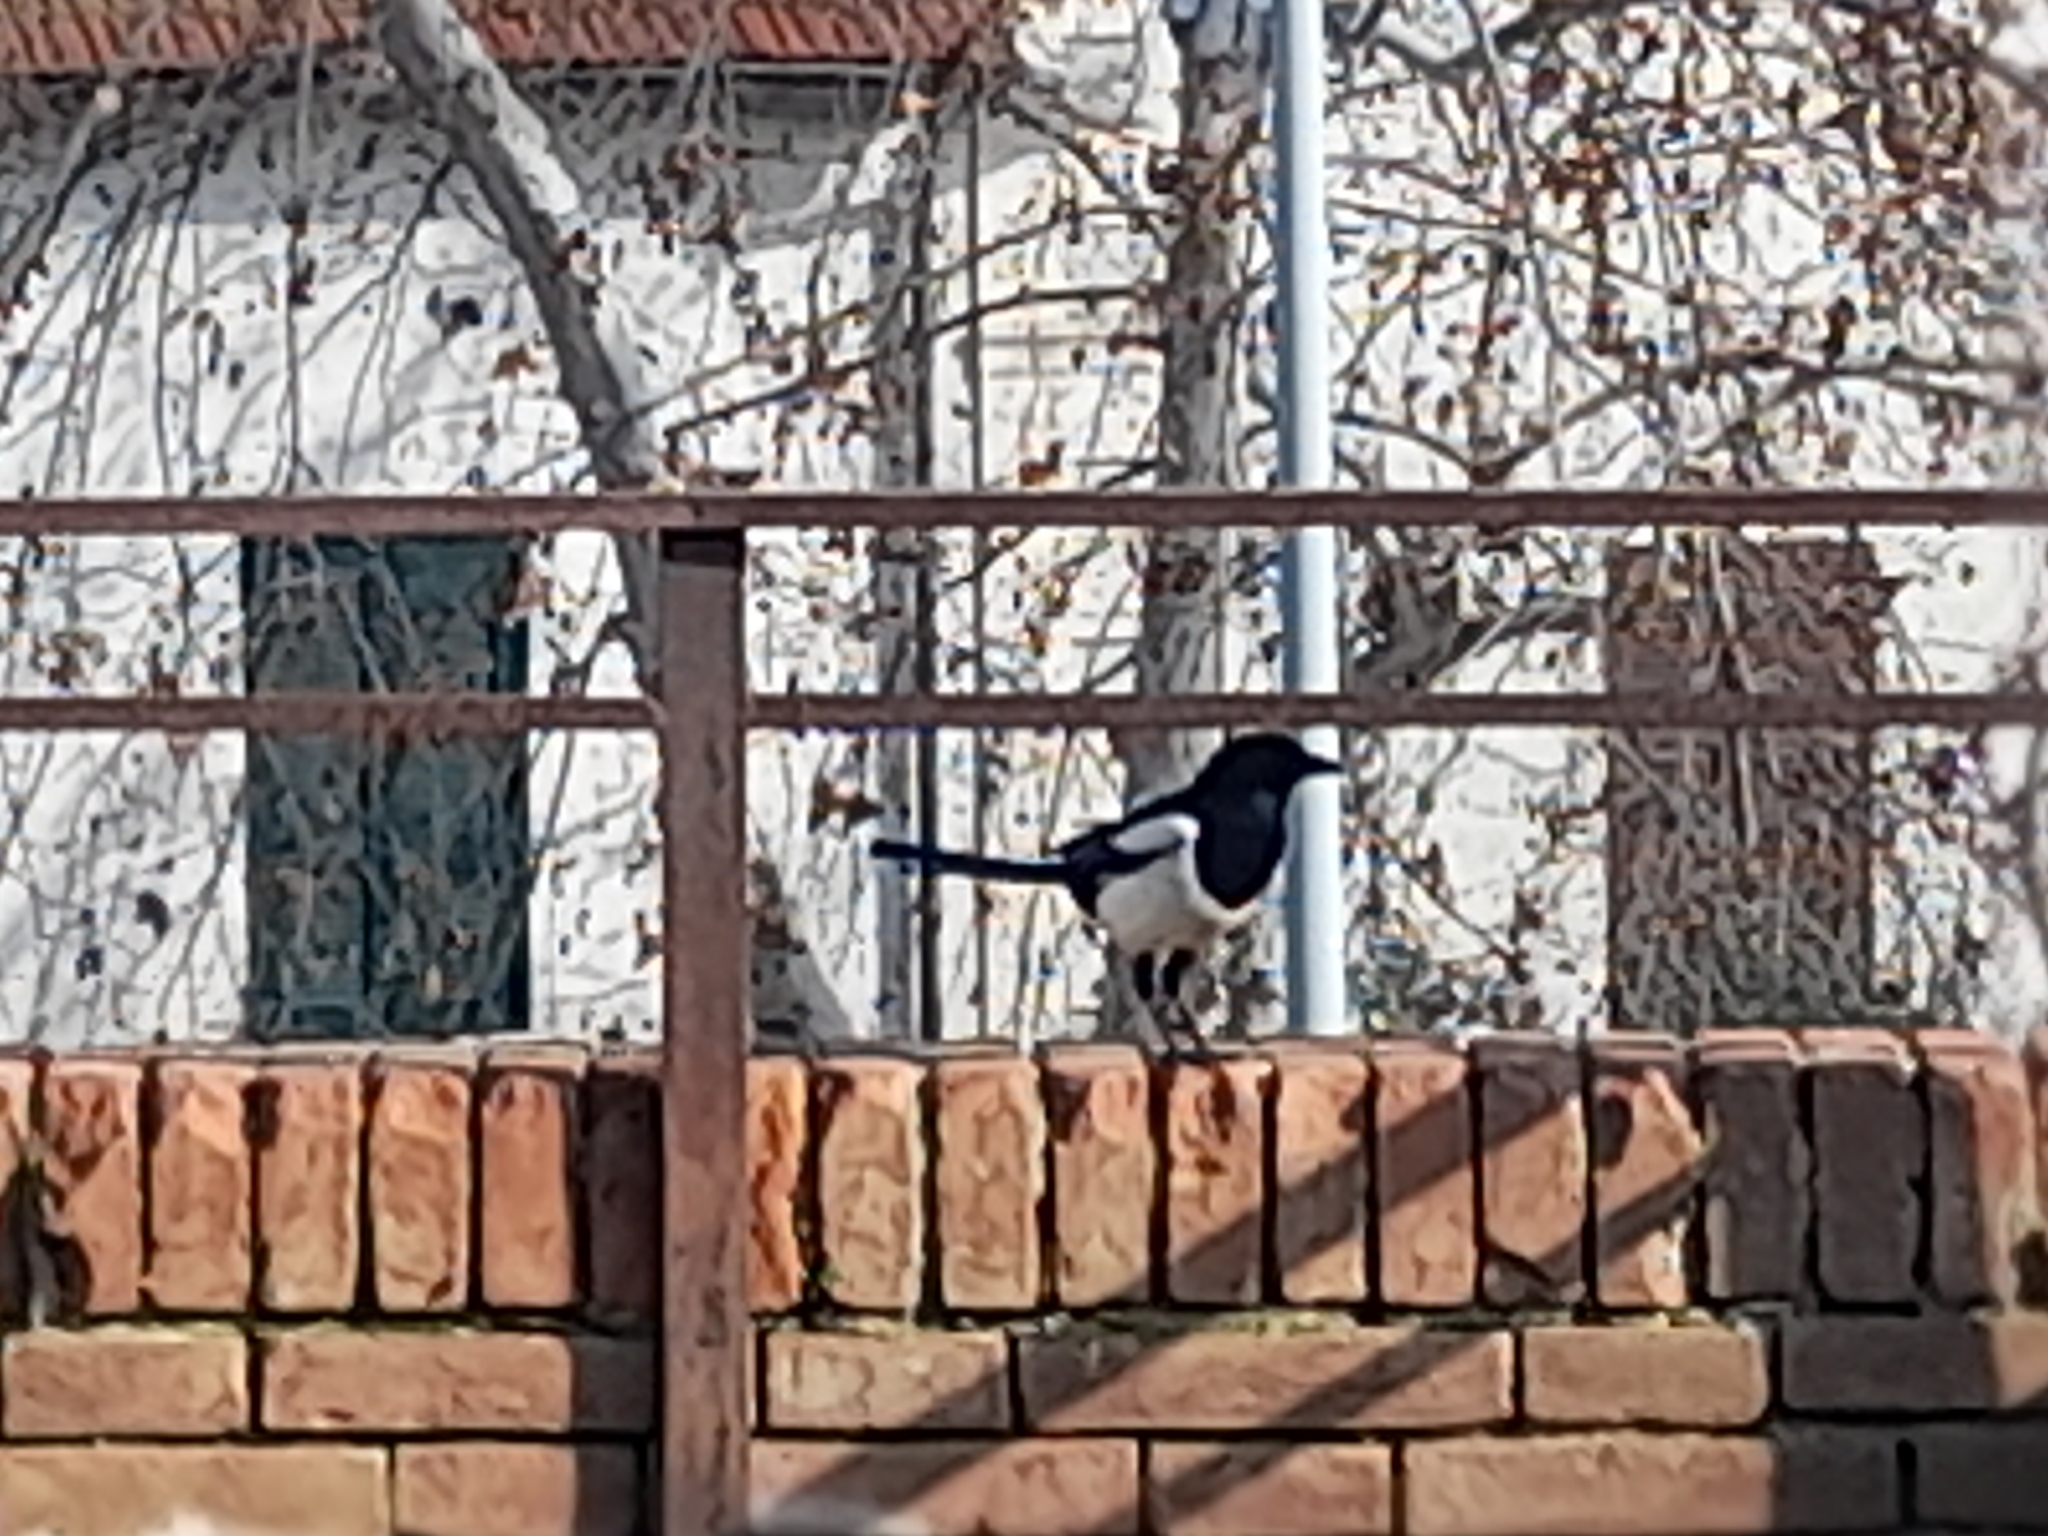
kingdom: Animalia
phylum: Chordata
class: Aves
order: Passeriformes
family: Corvidae
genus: Pica
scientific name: Pica pica
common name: Eurasian magpie
